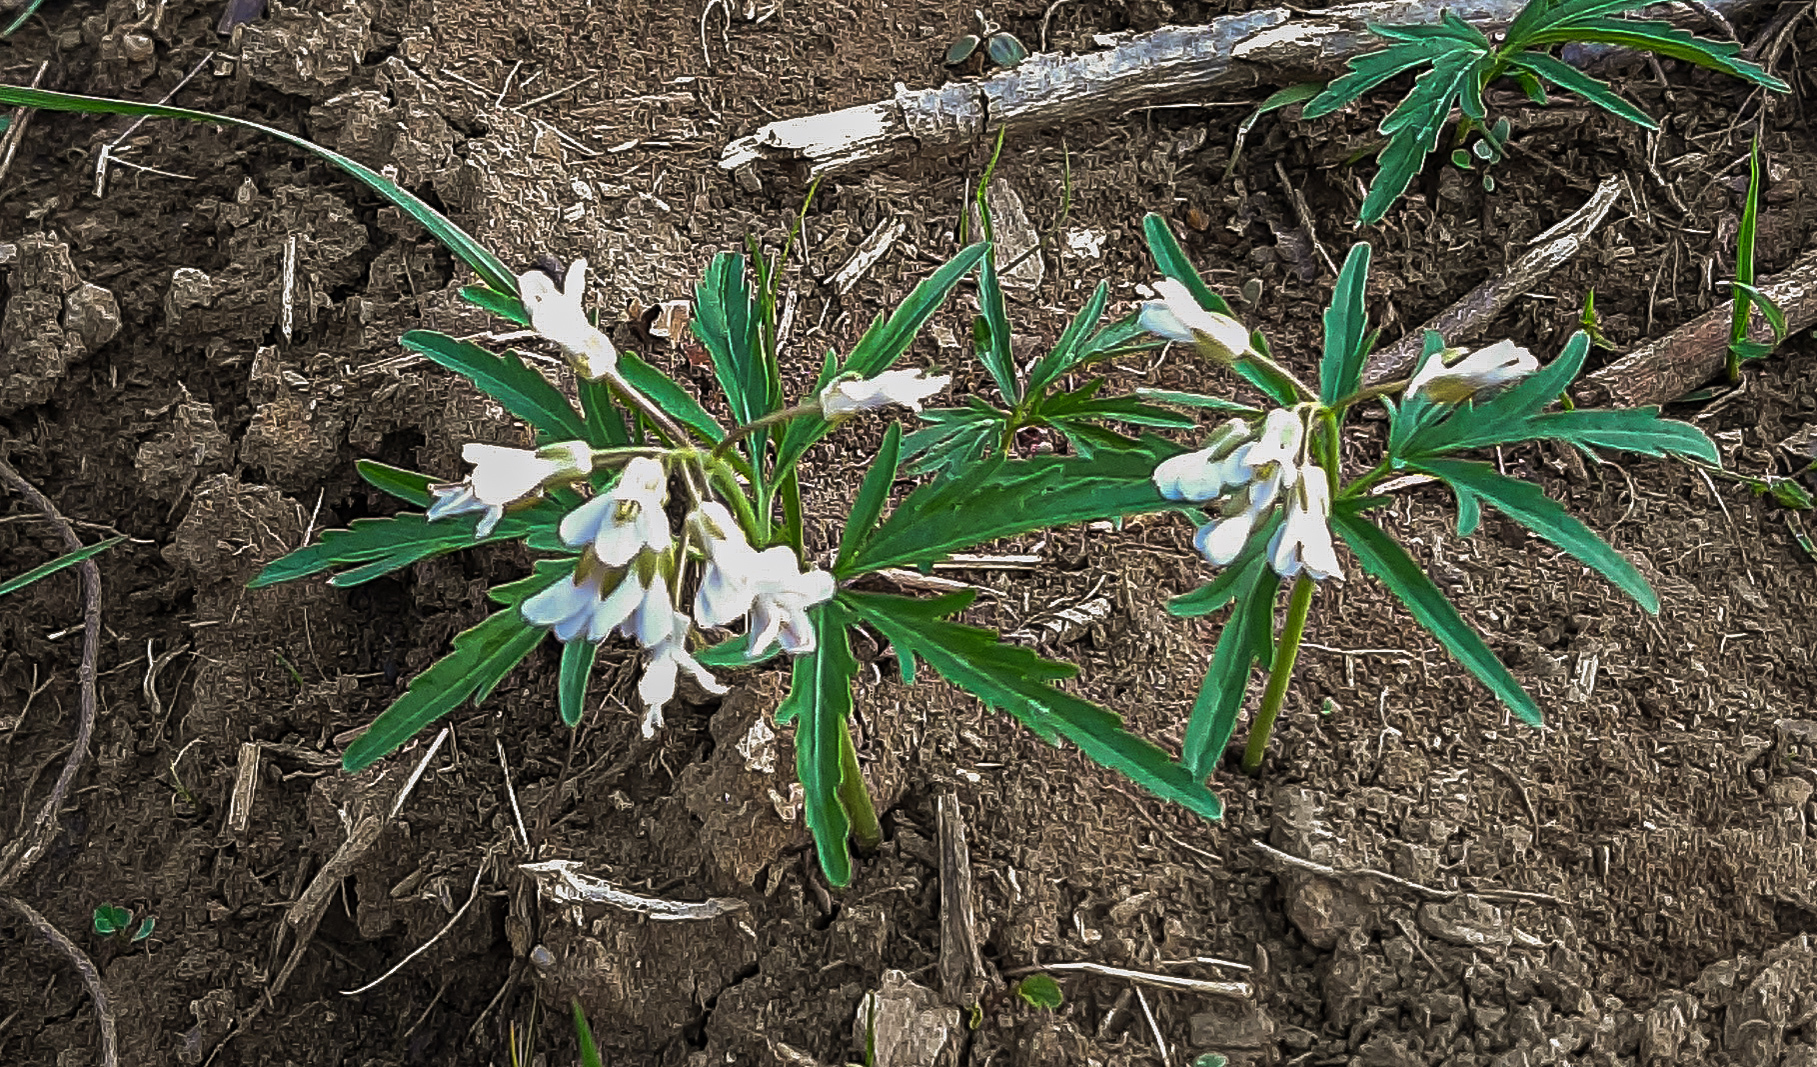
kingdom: Plantae
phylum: Tracheophyta
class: Magnoliopsida
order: Brassicales
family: Brassicaceae
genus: Cardamine
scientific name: Cardamine concatenata
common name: Cut-leaf toothcup
